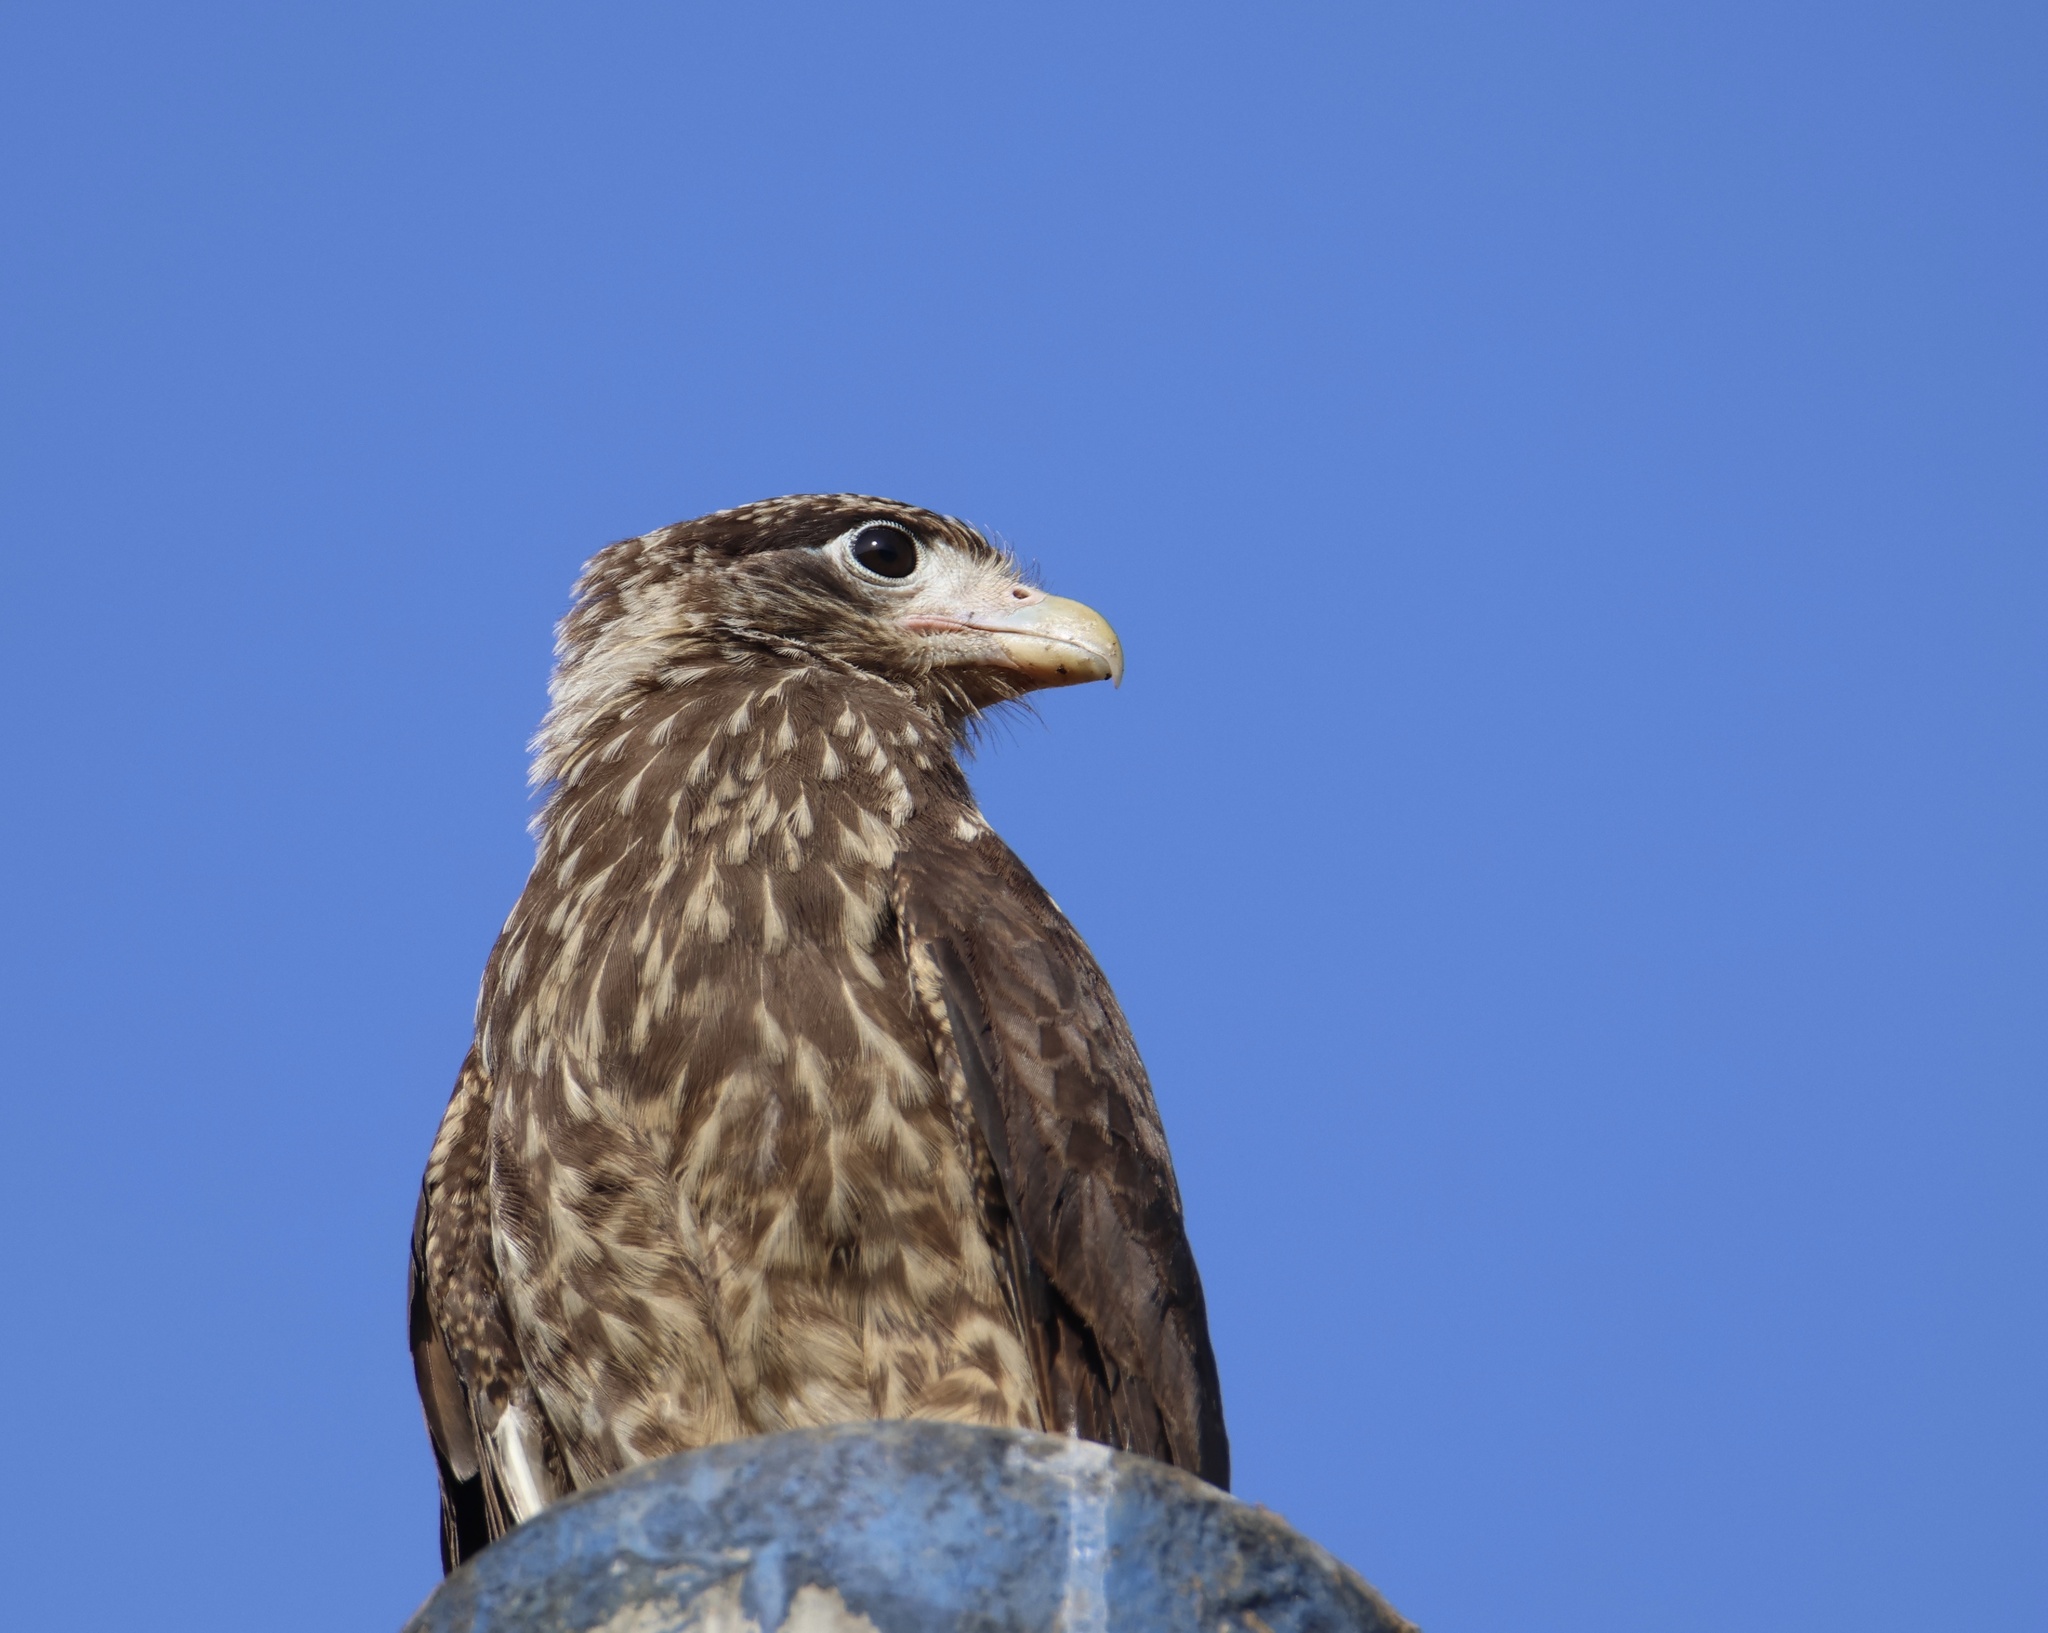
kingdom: Animalia
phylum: Chordata
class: Aves
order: Falconiformes
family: Falconidae
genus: Daptrius
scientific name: Daptrius
